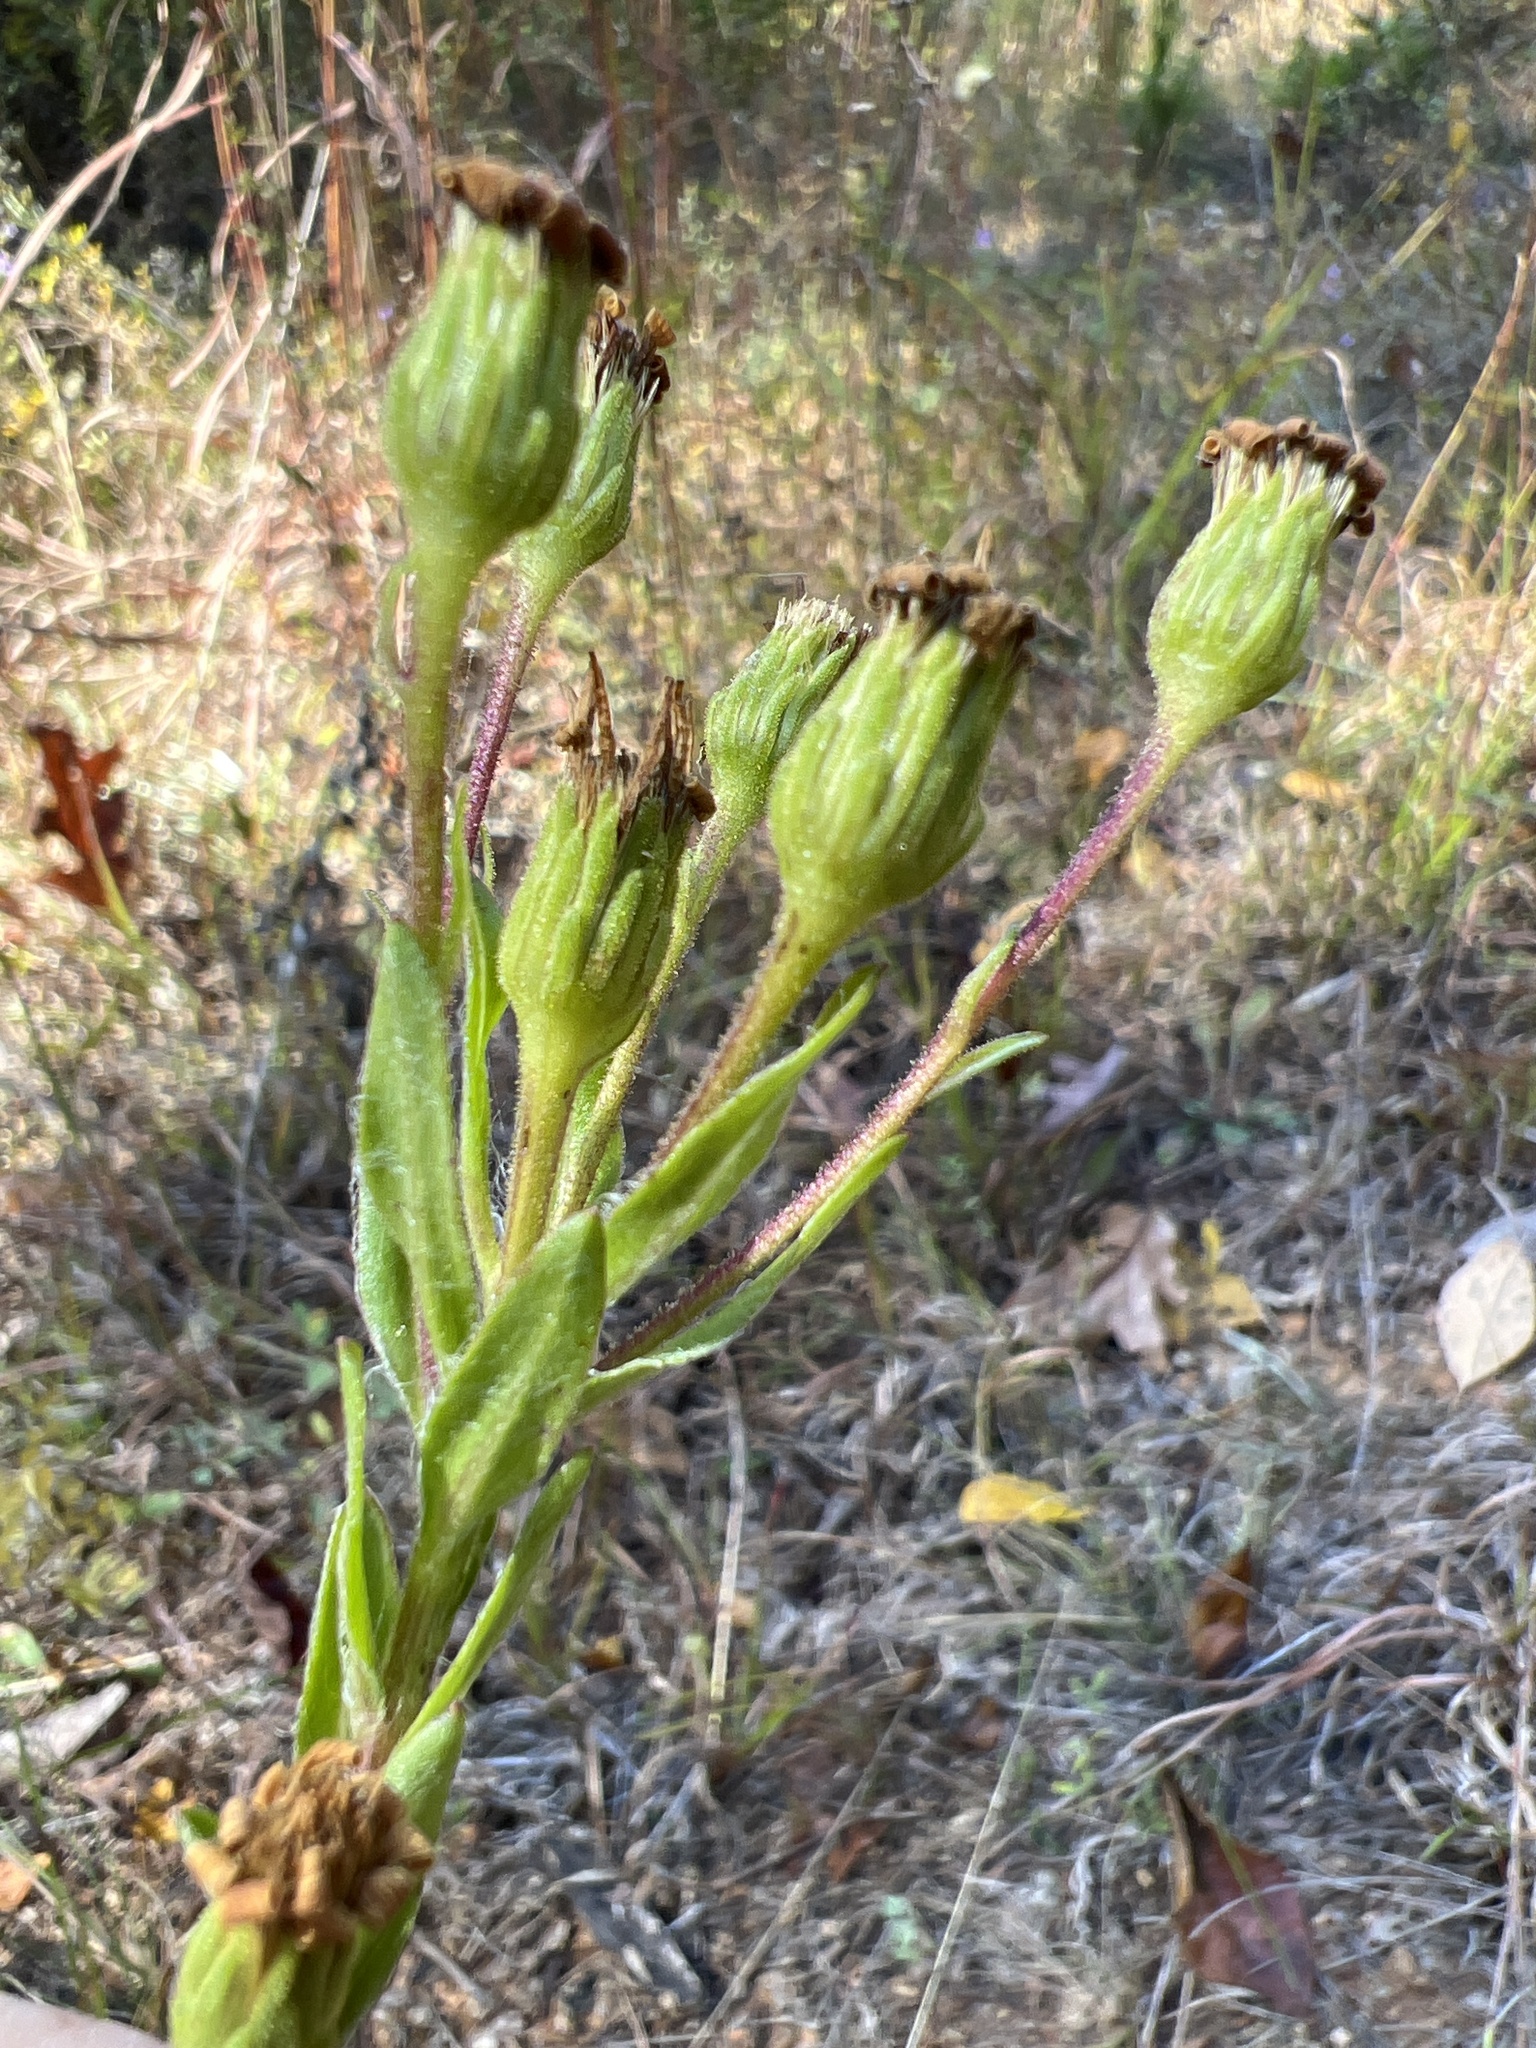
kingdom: Plantae
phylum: Tracheophyta
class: Magnoliopsida
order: Asterales
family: Asteraceae
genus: Chrysopsis
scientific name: Chrysopsis mariana
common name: Maryland golden-aster
